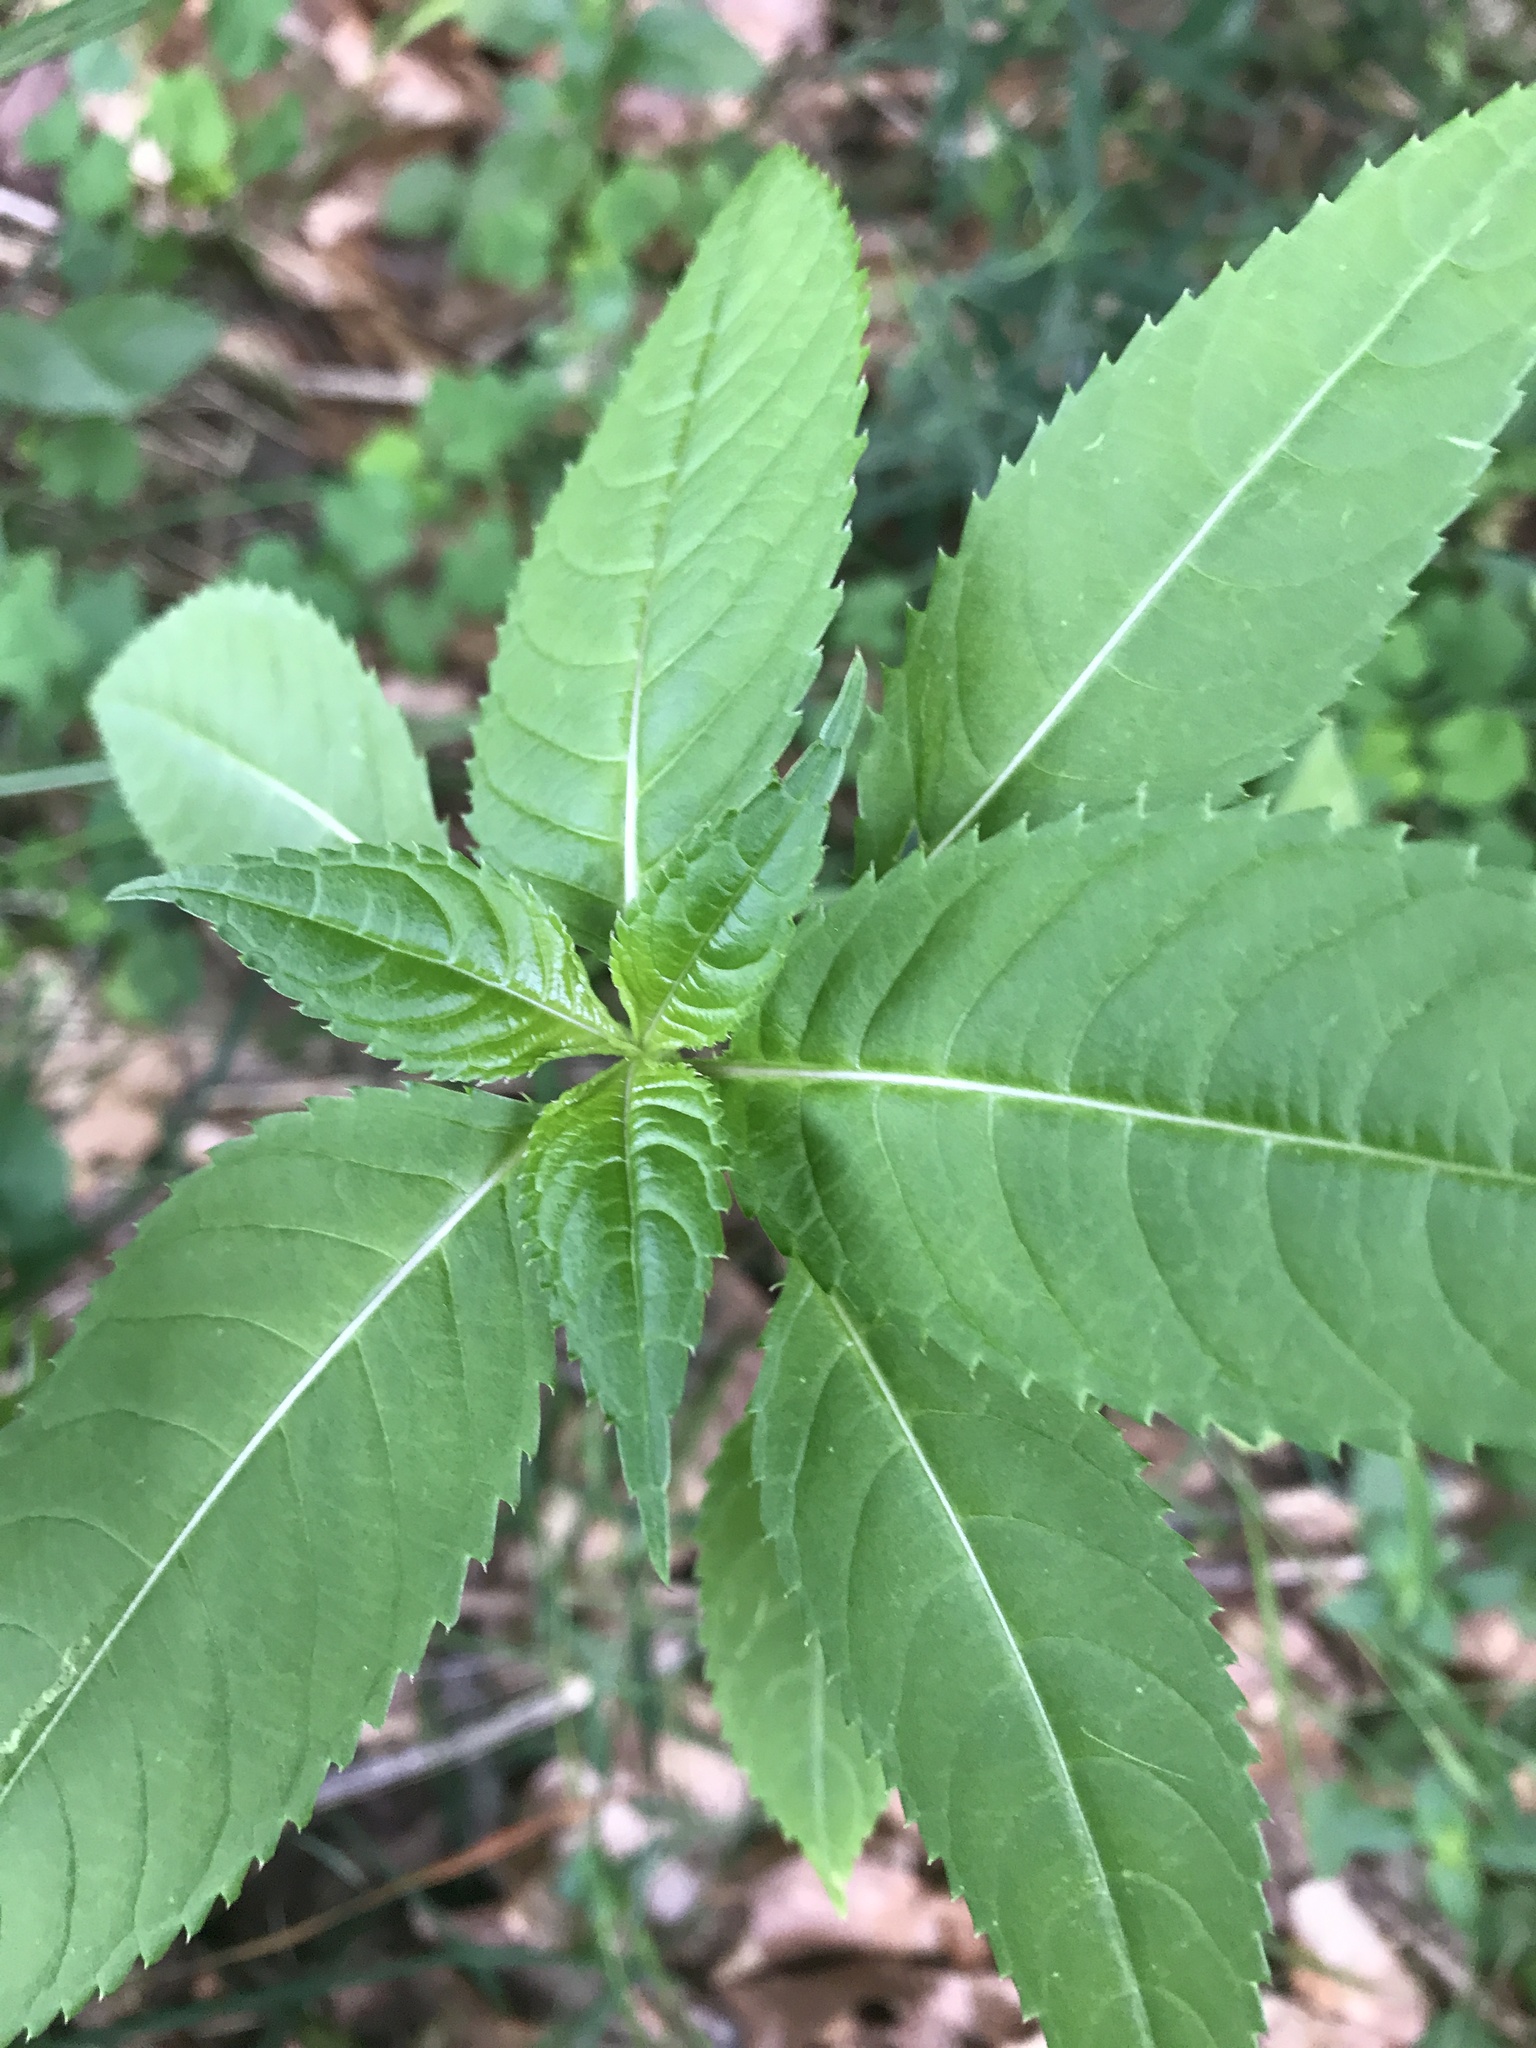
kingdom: Plantae
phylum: Tracheophyta
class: Magnoliopsida
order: Ericales
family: Balsaminaceae
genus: Impatiens
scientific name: Impatiens glandulifera
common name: Himalayan balsam
